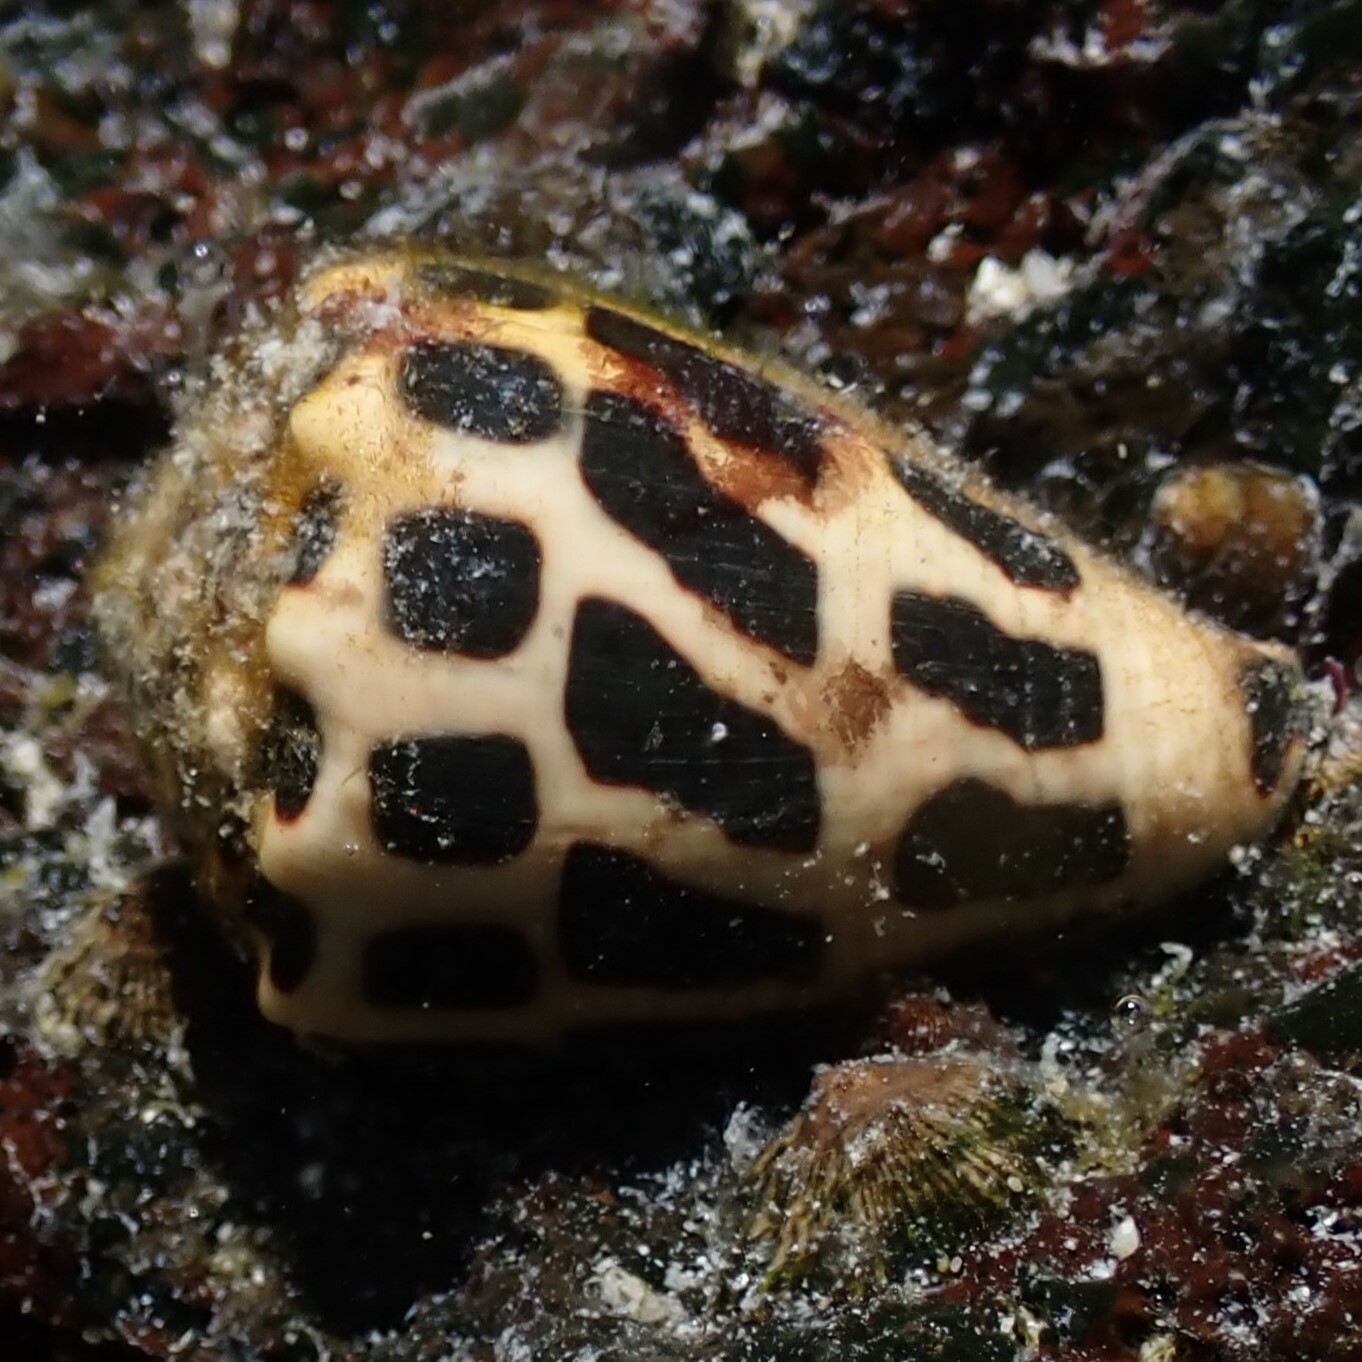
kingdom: Animalia
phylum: Mollusca
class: Gastropoda
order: Neogastropoda
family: Conidae
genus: Conus
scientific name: Conus ebraeus
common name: Hebrew cone
